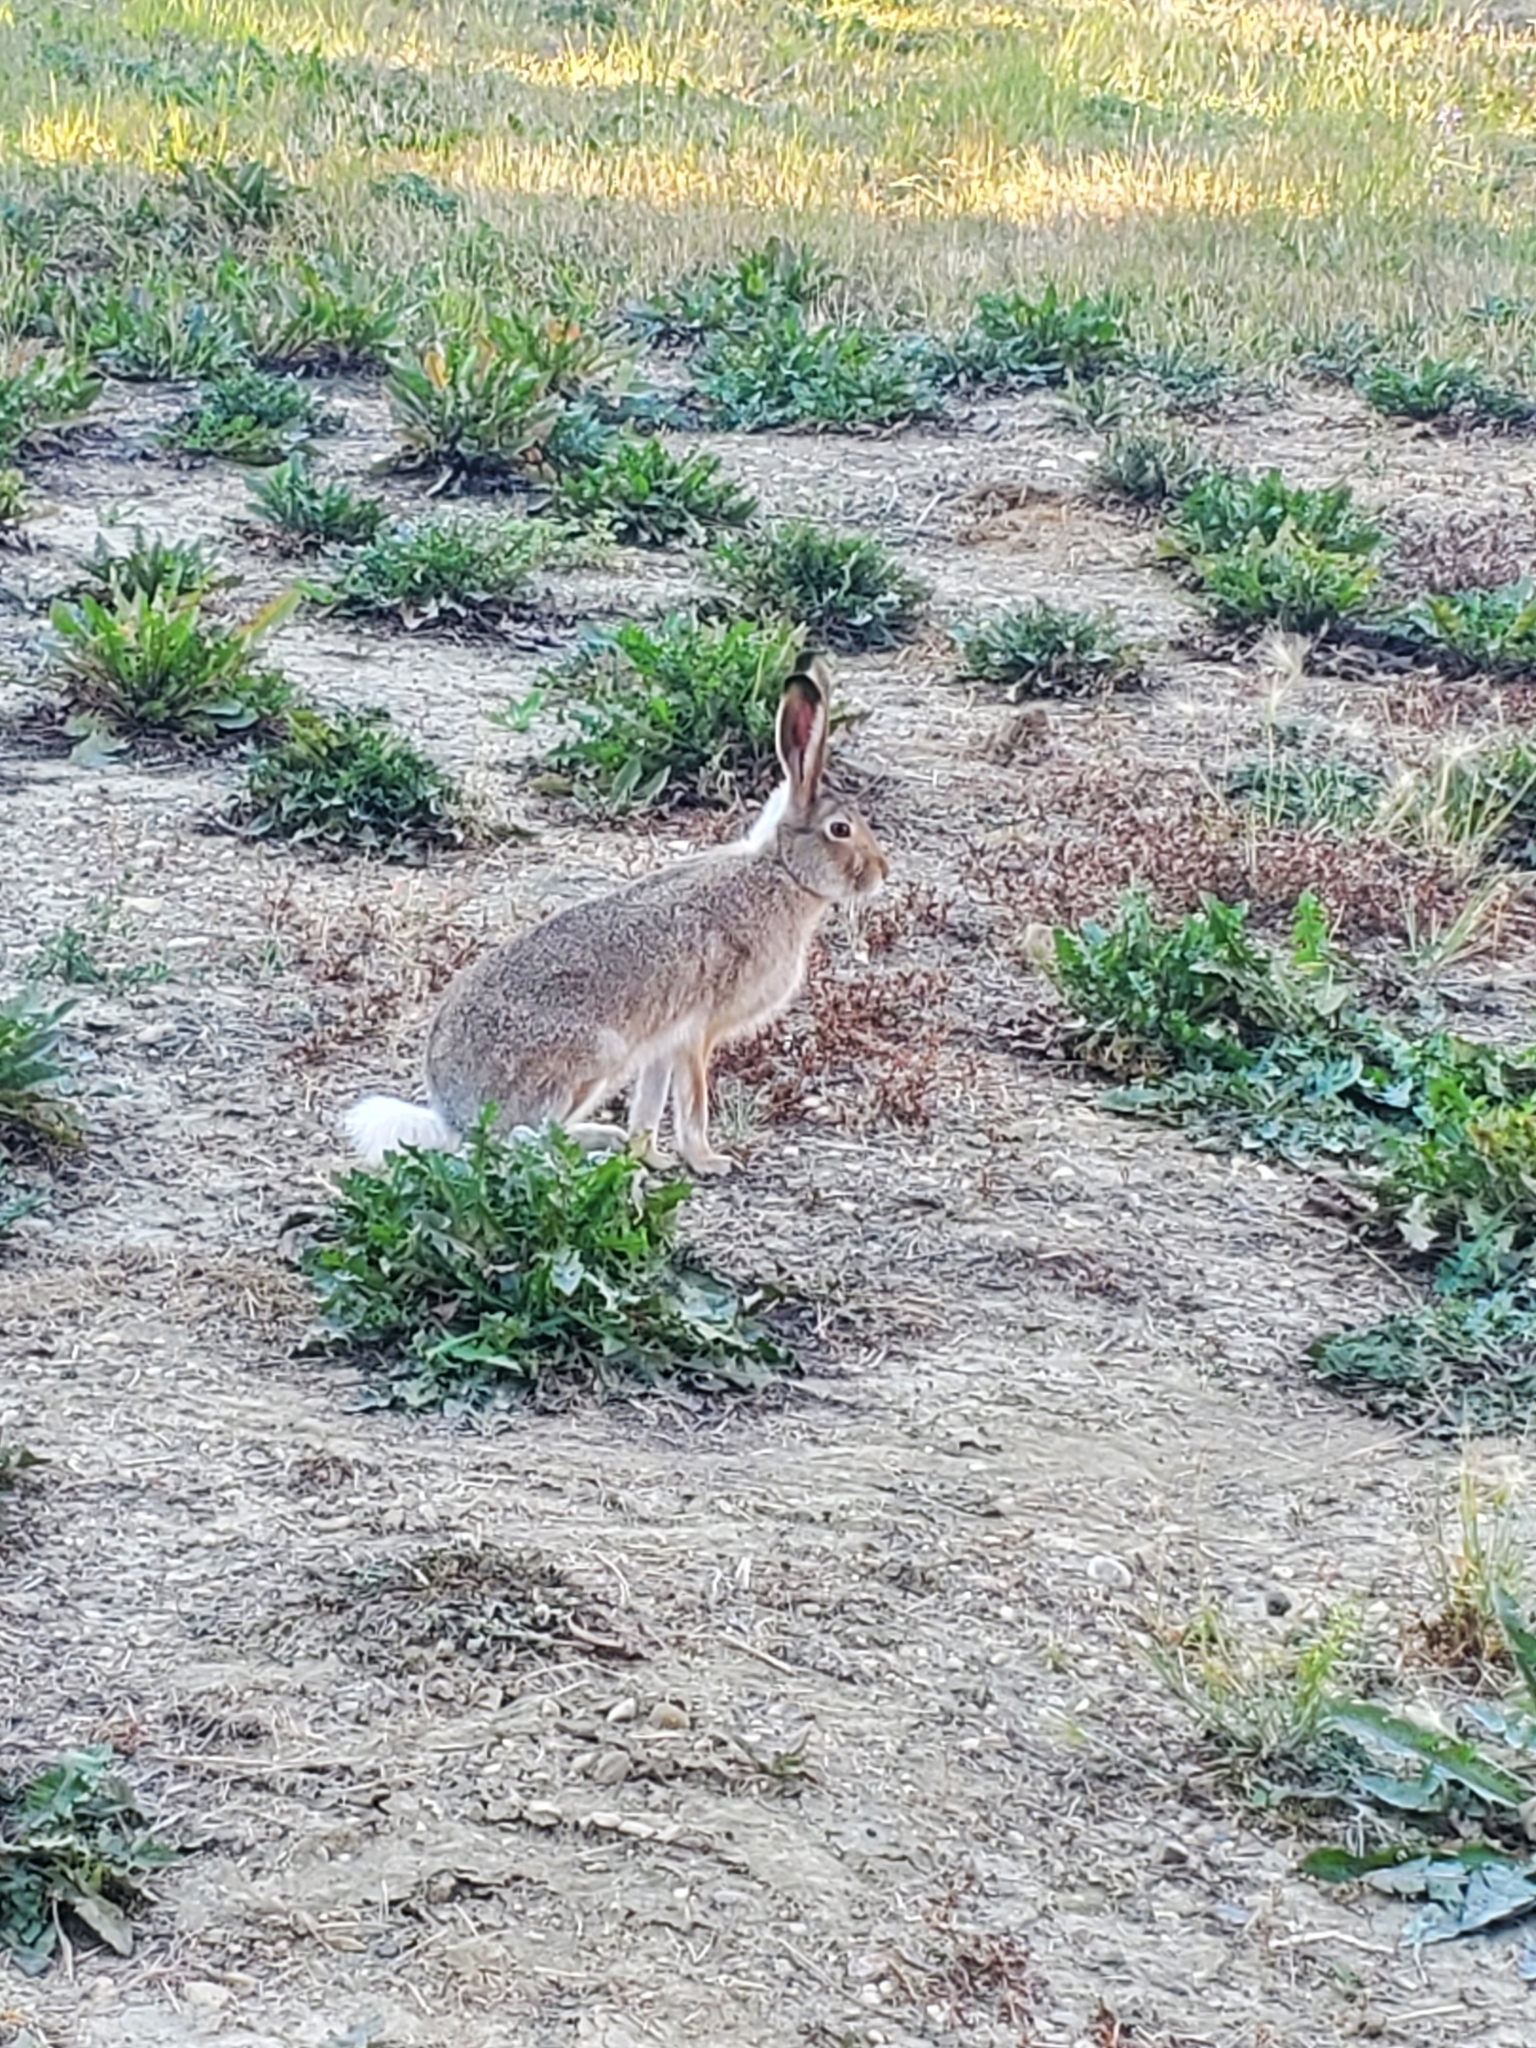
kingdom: Animalia
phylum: Chordata
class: Mammalia
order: Lagomorpha
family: Leporidae
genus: Lepus
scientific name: Lepus townsendii
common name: White-tailed jackrabbit
